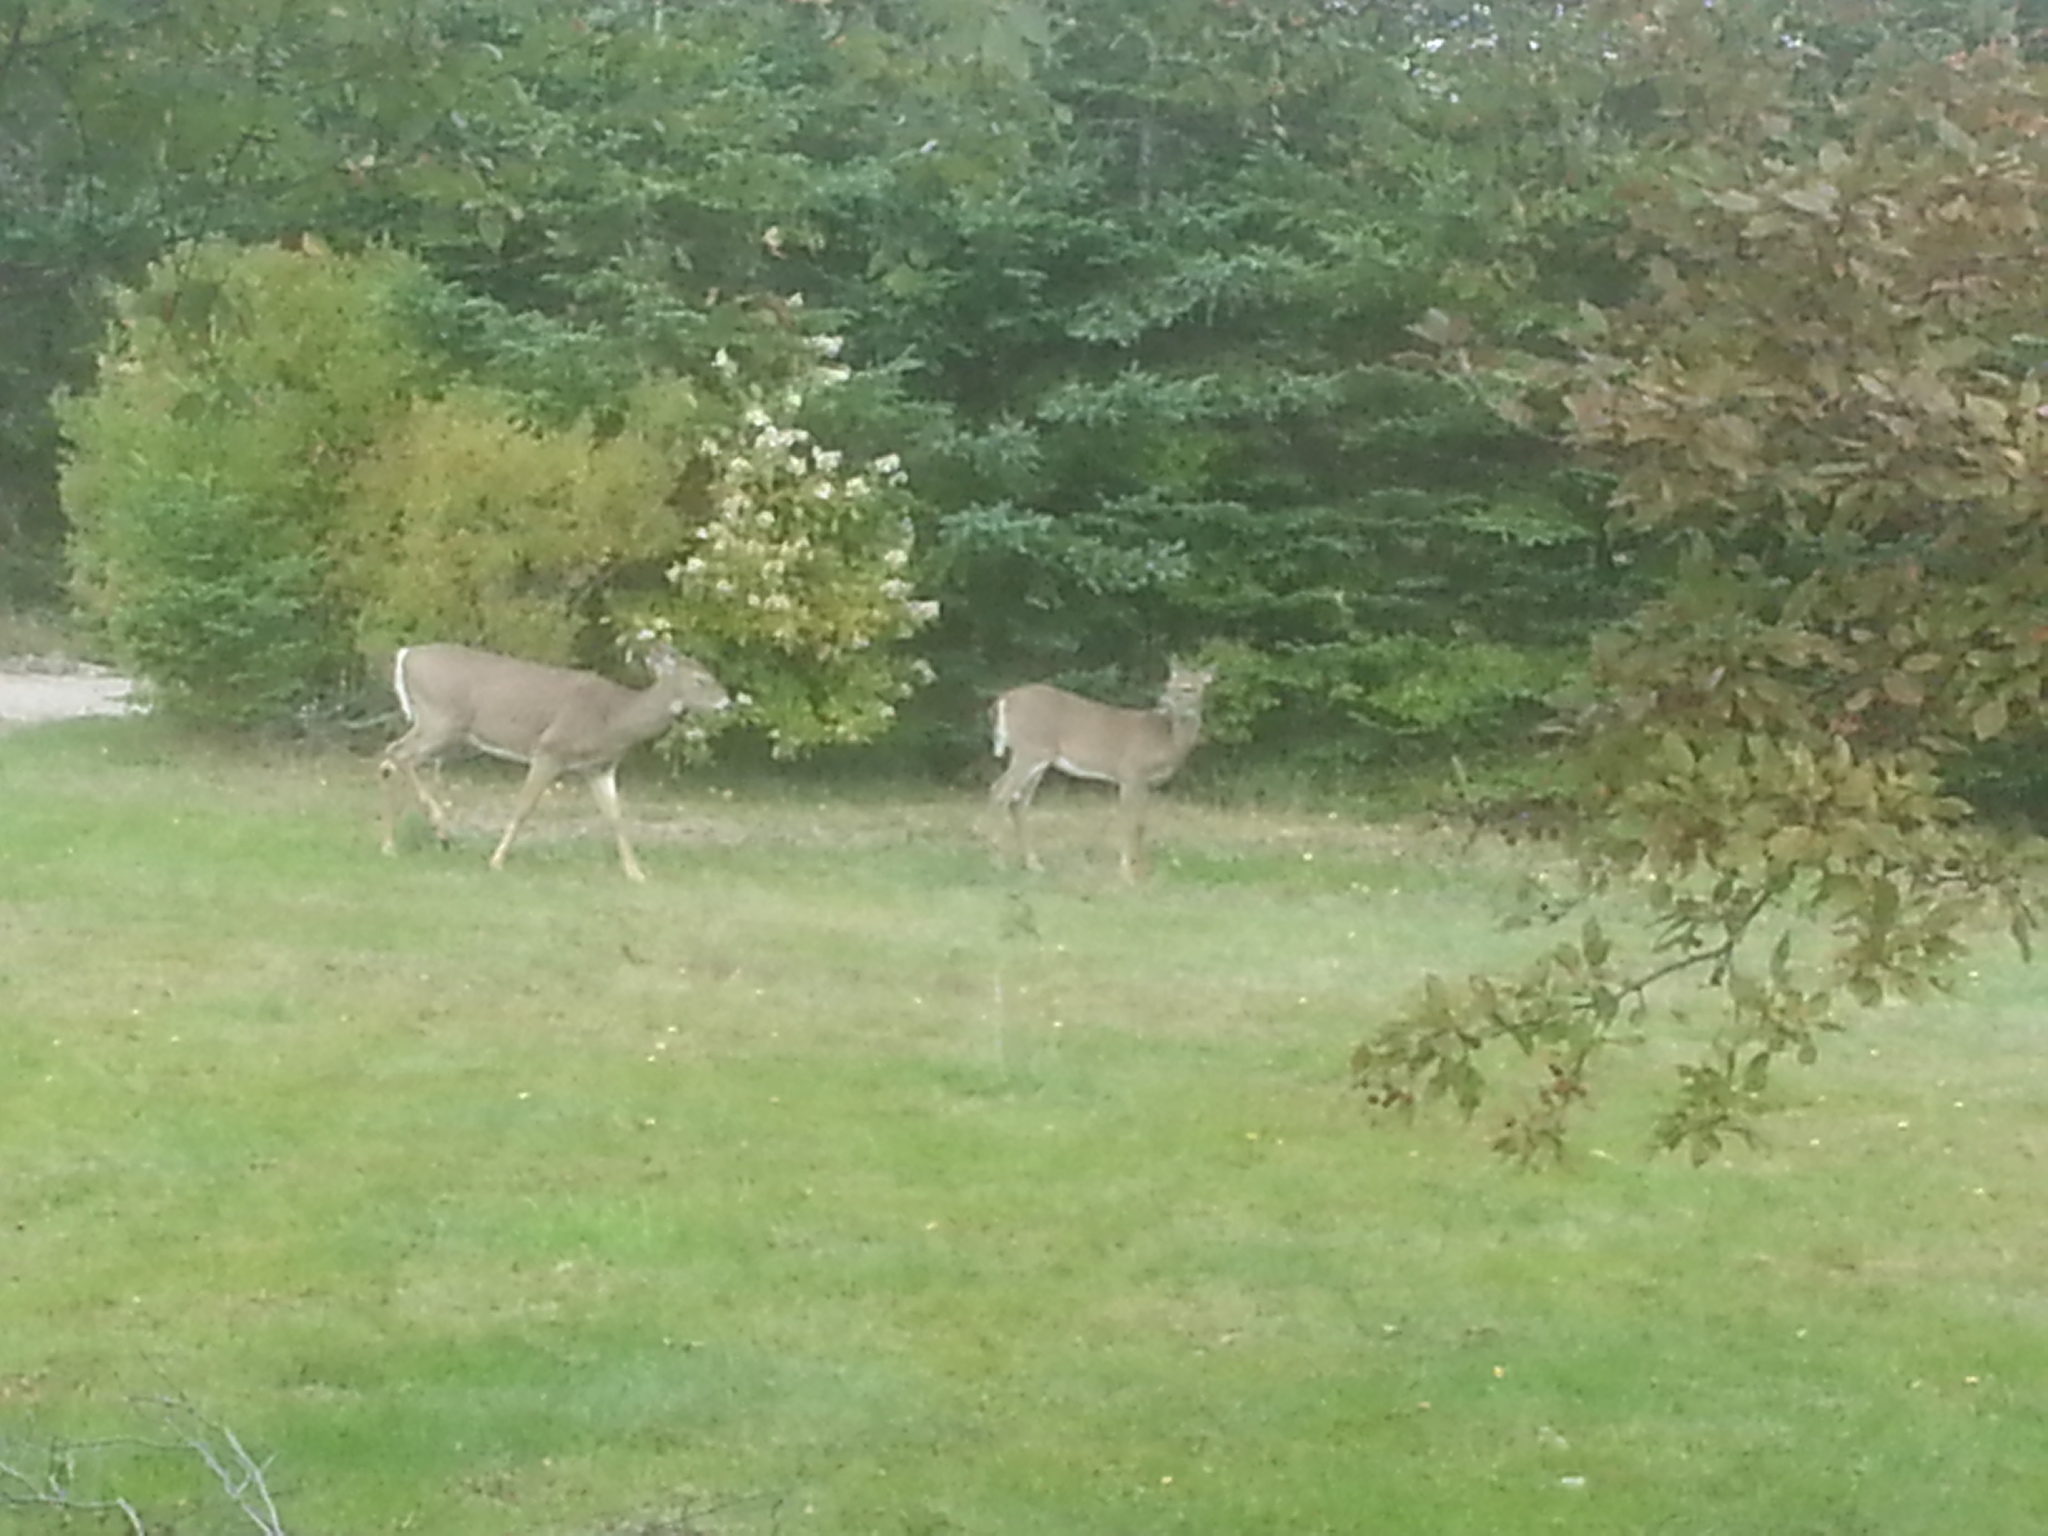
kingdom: Animalia
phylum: Chordata
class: Mammalia
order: Artiodactyla
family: Cervidae
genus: Odocoileus
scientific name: Odocoileus virginianus
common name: White-tailed deer
